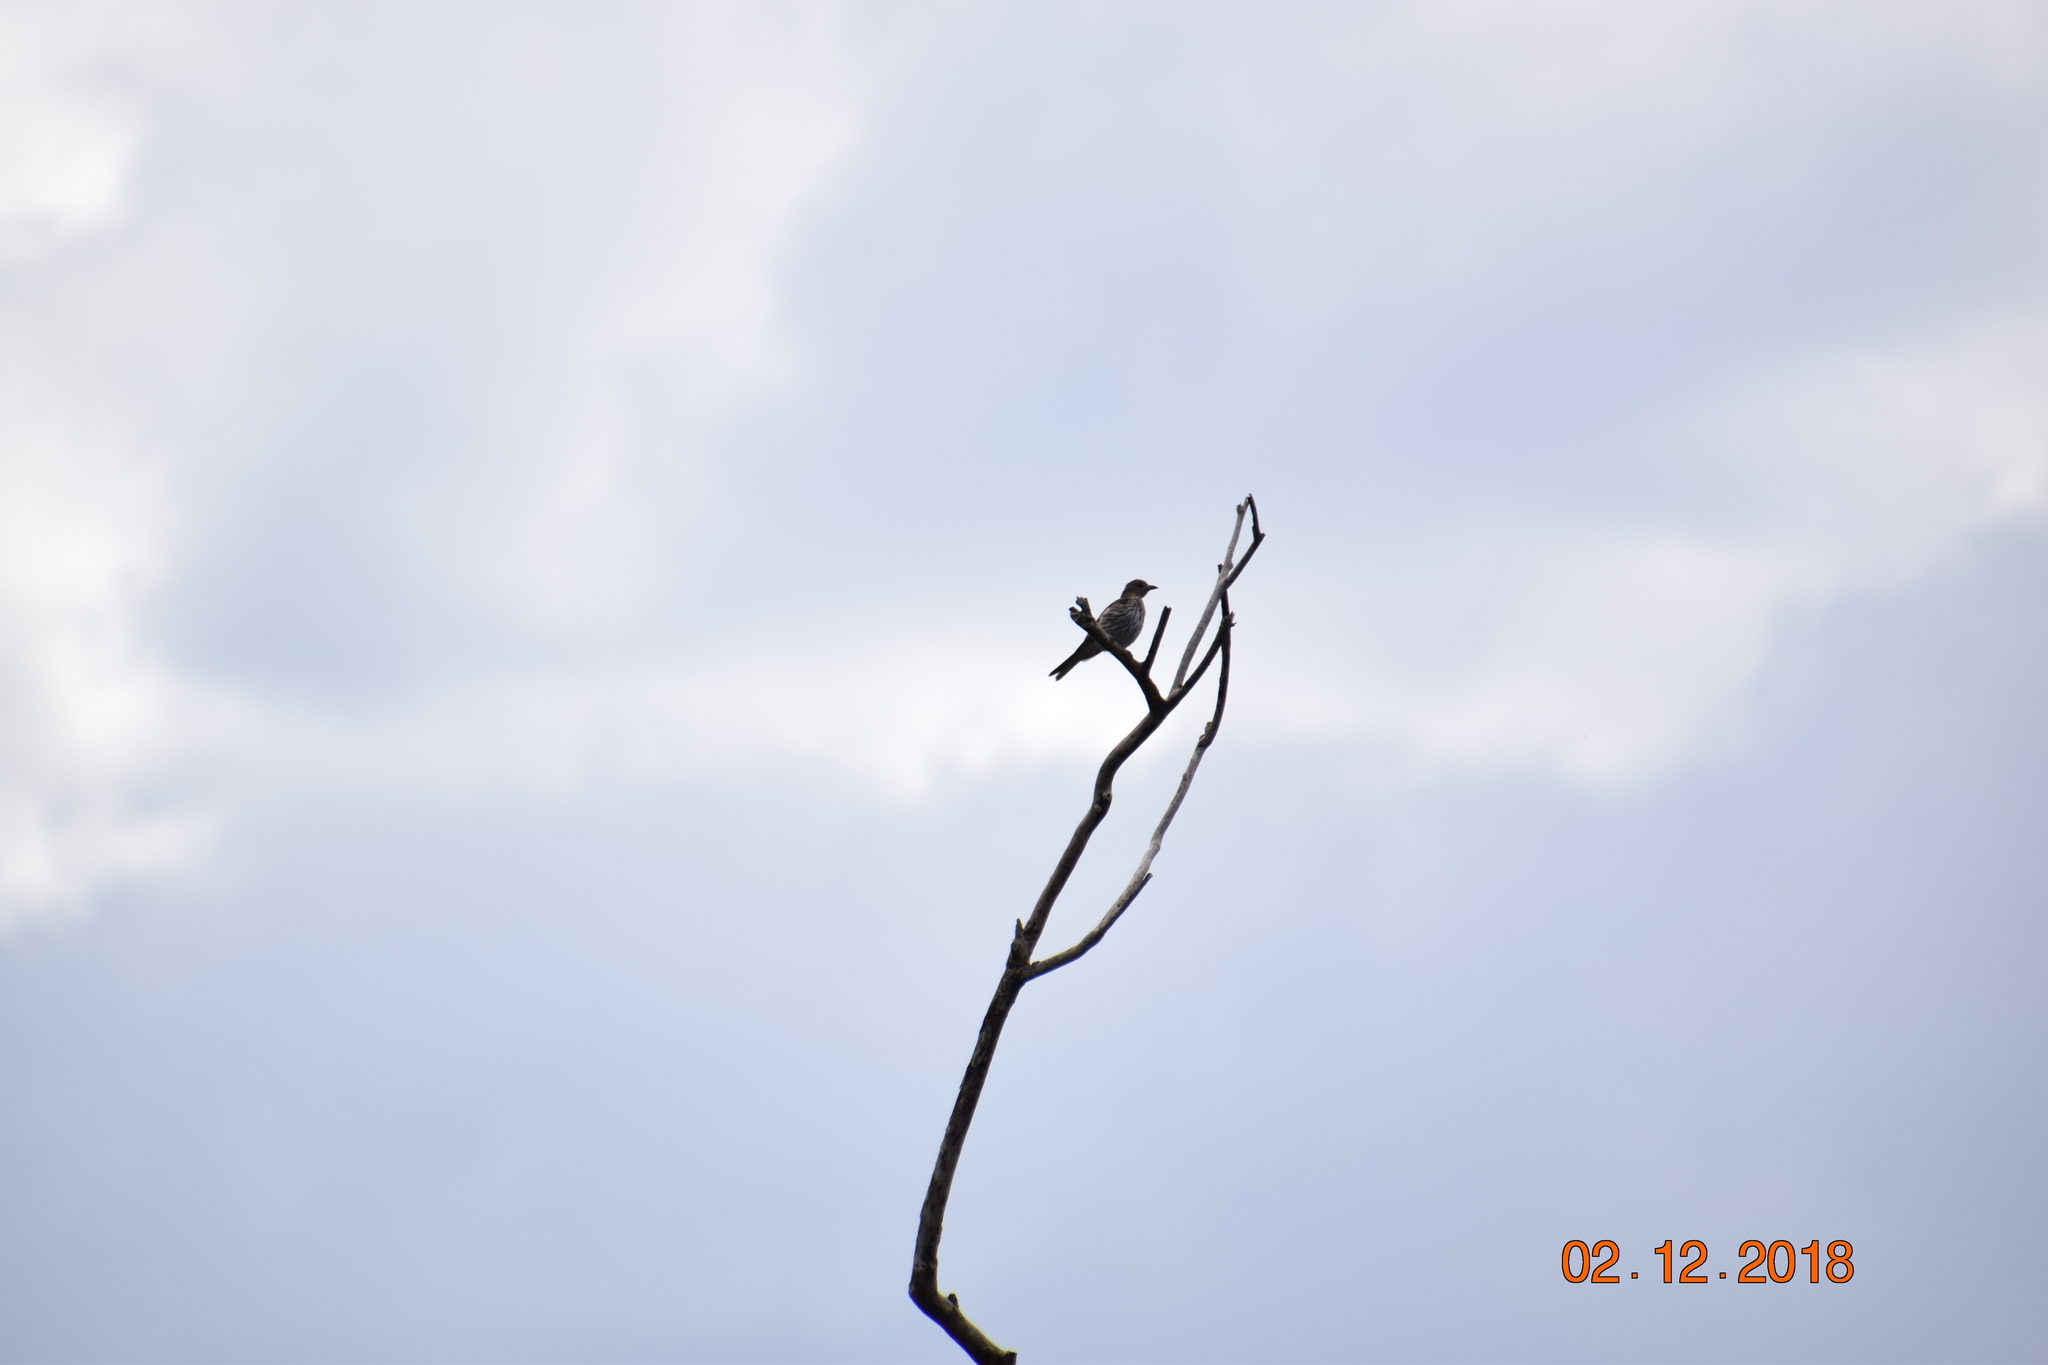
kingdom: Animalia
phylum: Chordata
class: Aves
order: Passeriformes
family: Oriolidae
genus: Sphecotheres
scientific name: Sphecotheres vieilloti
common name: Australasian figbird
